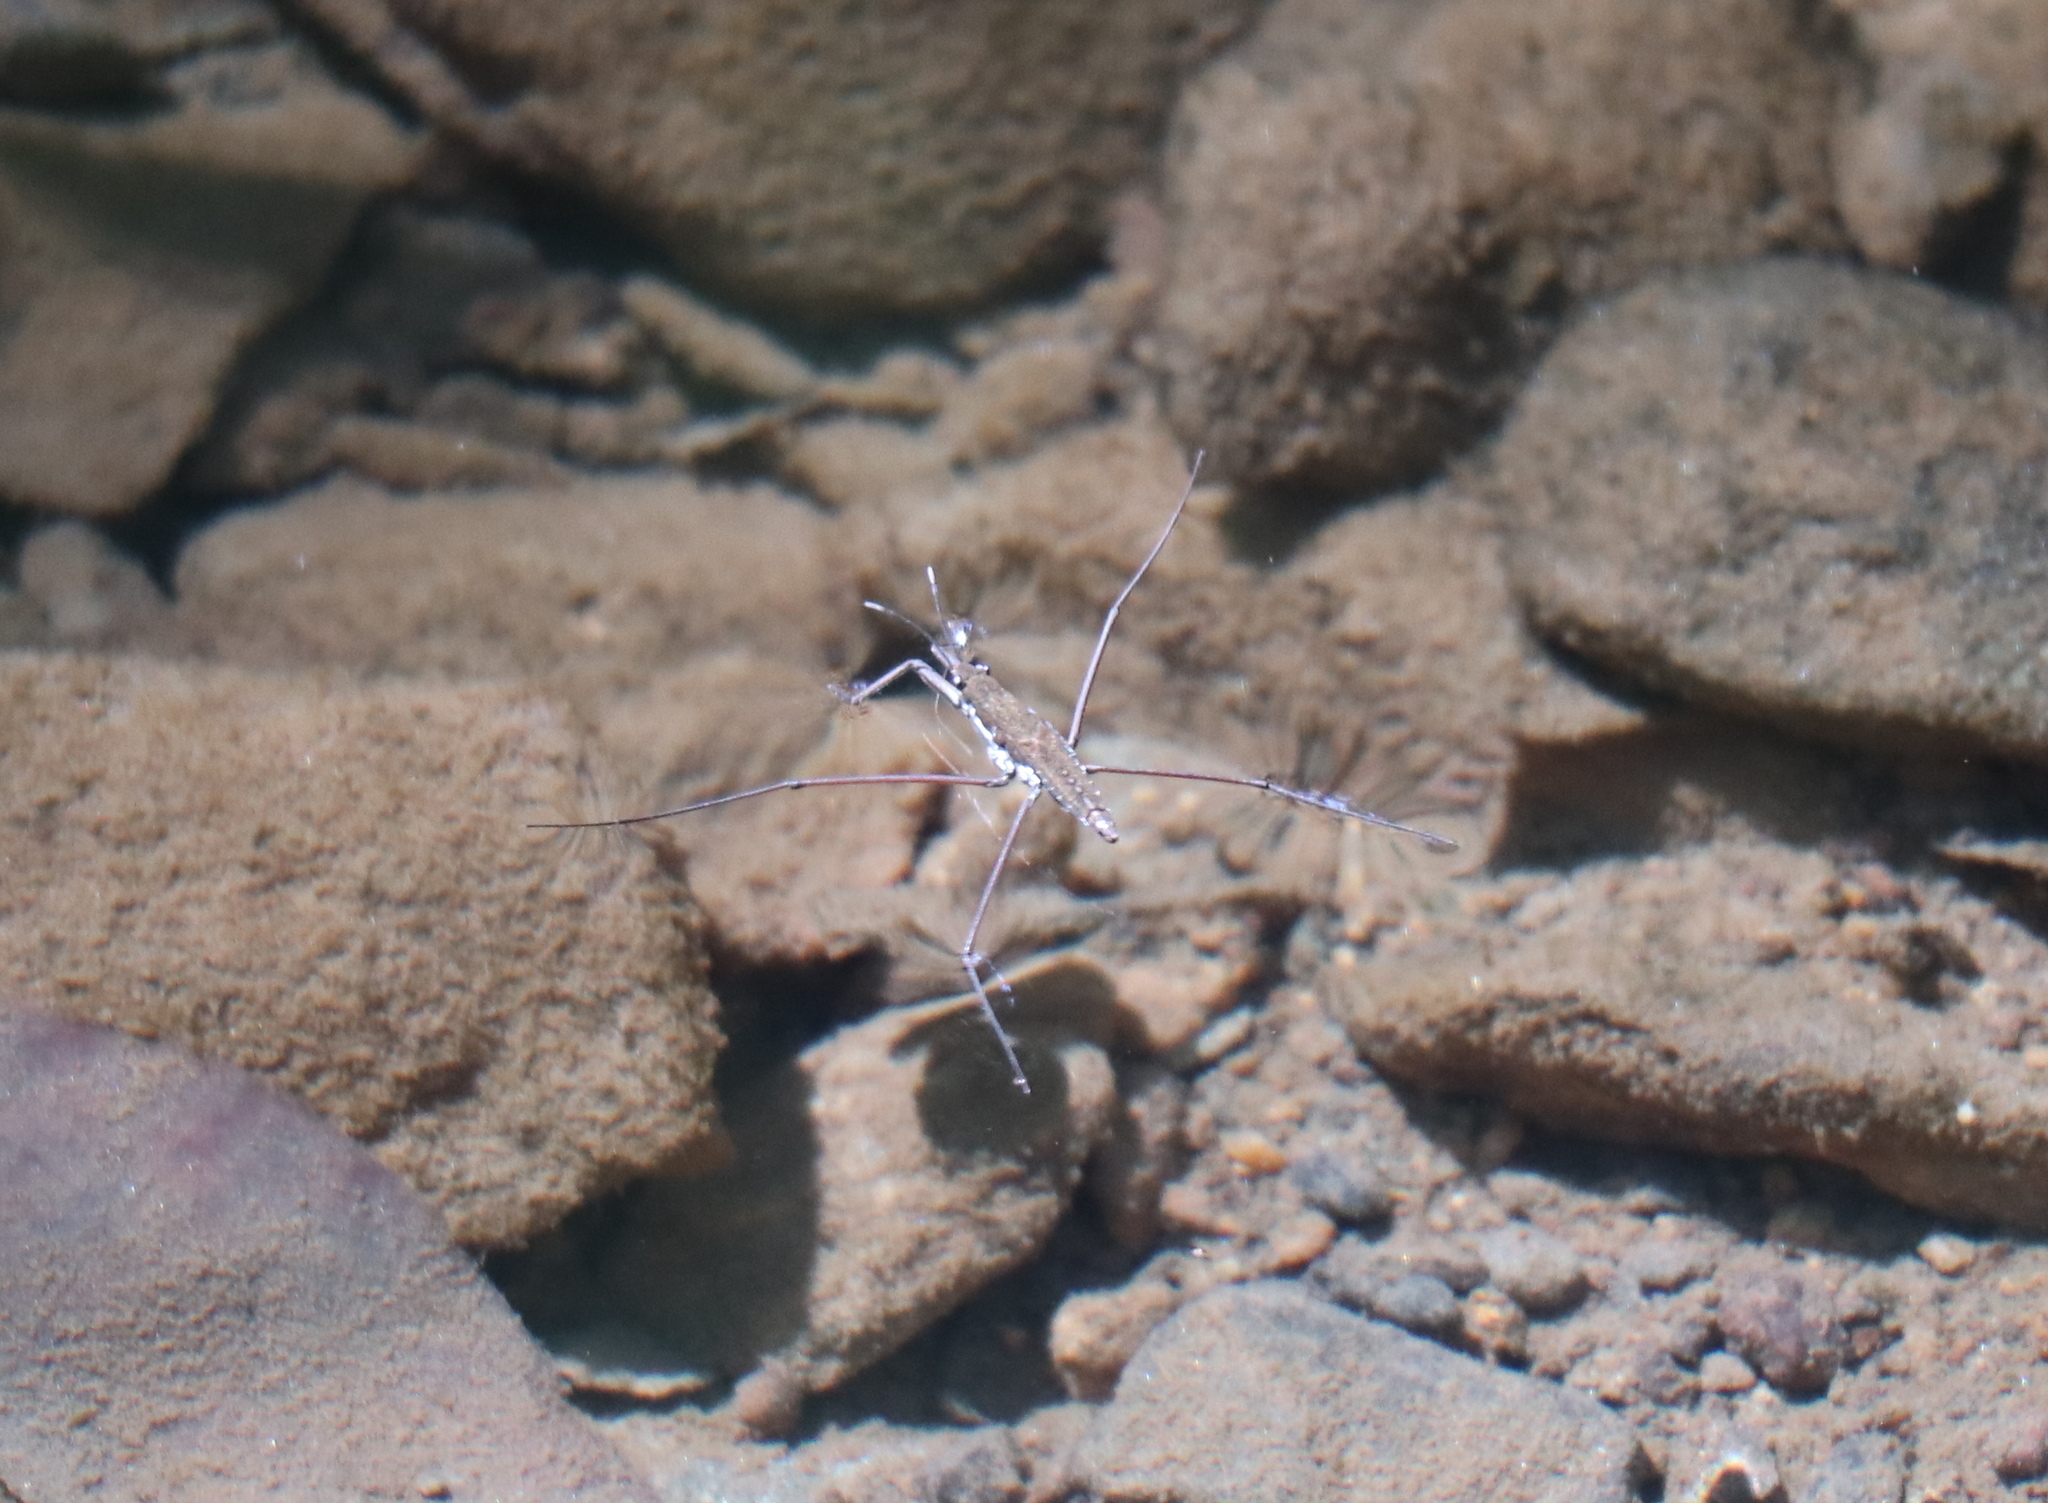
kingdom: Animalia
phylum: Arthropoda
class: Insecta
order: Hemiptera
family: Gerridae
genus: Aquarius
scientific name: Aquarius
